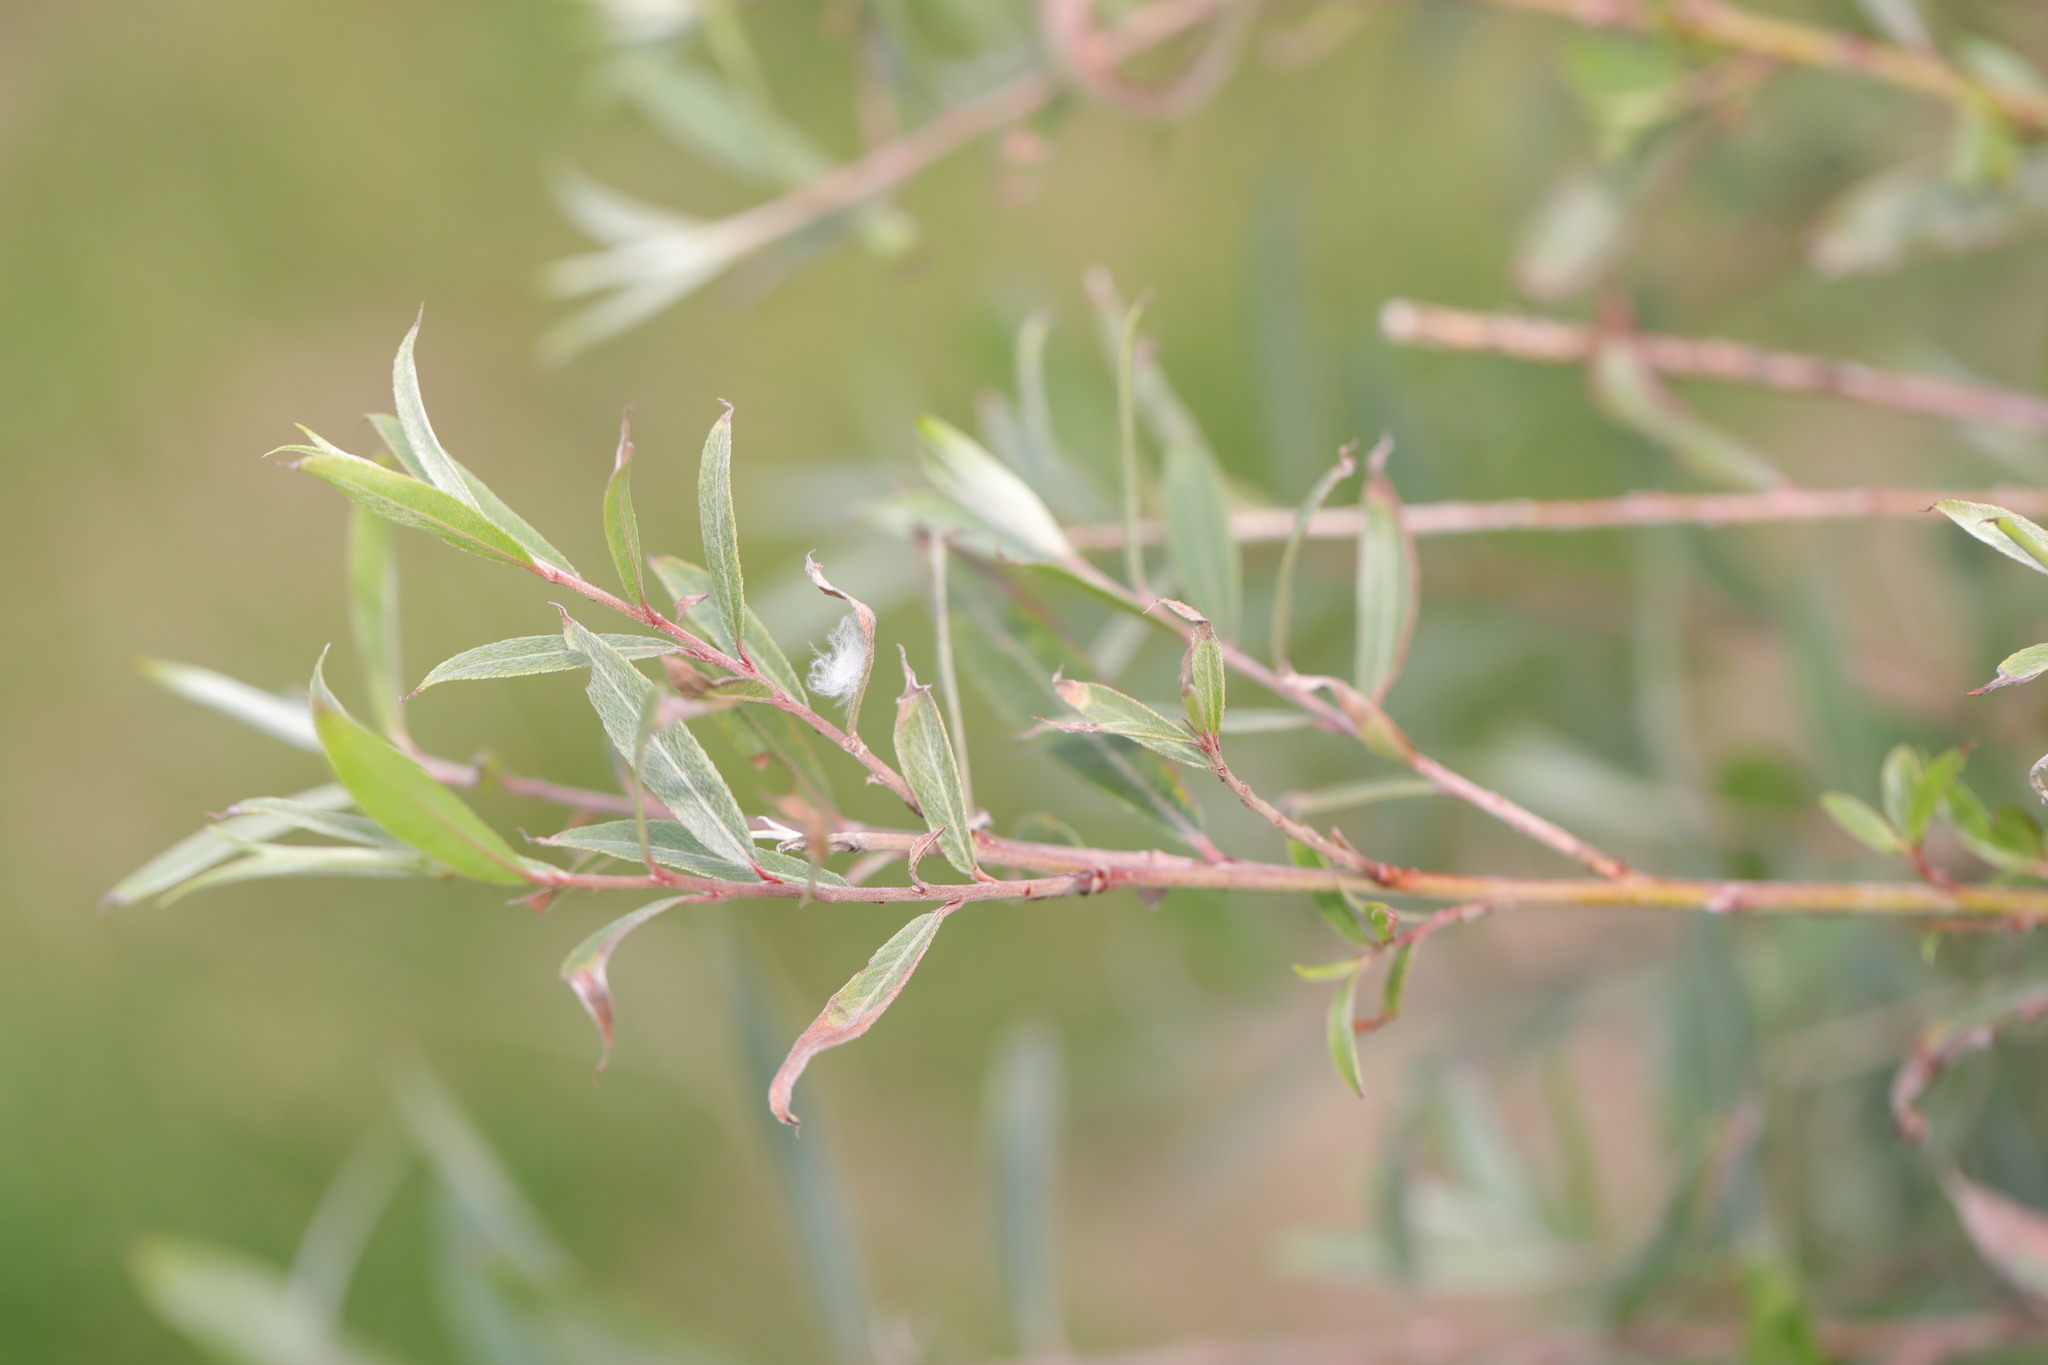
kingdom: Plantae
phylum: Tracheophyta
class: Magnoliopsida
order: Malpighiales
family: Salicaceae
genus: Salix
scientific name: Salix alba
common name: White willow
